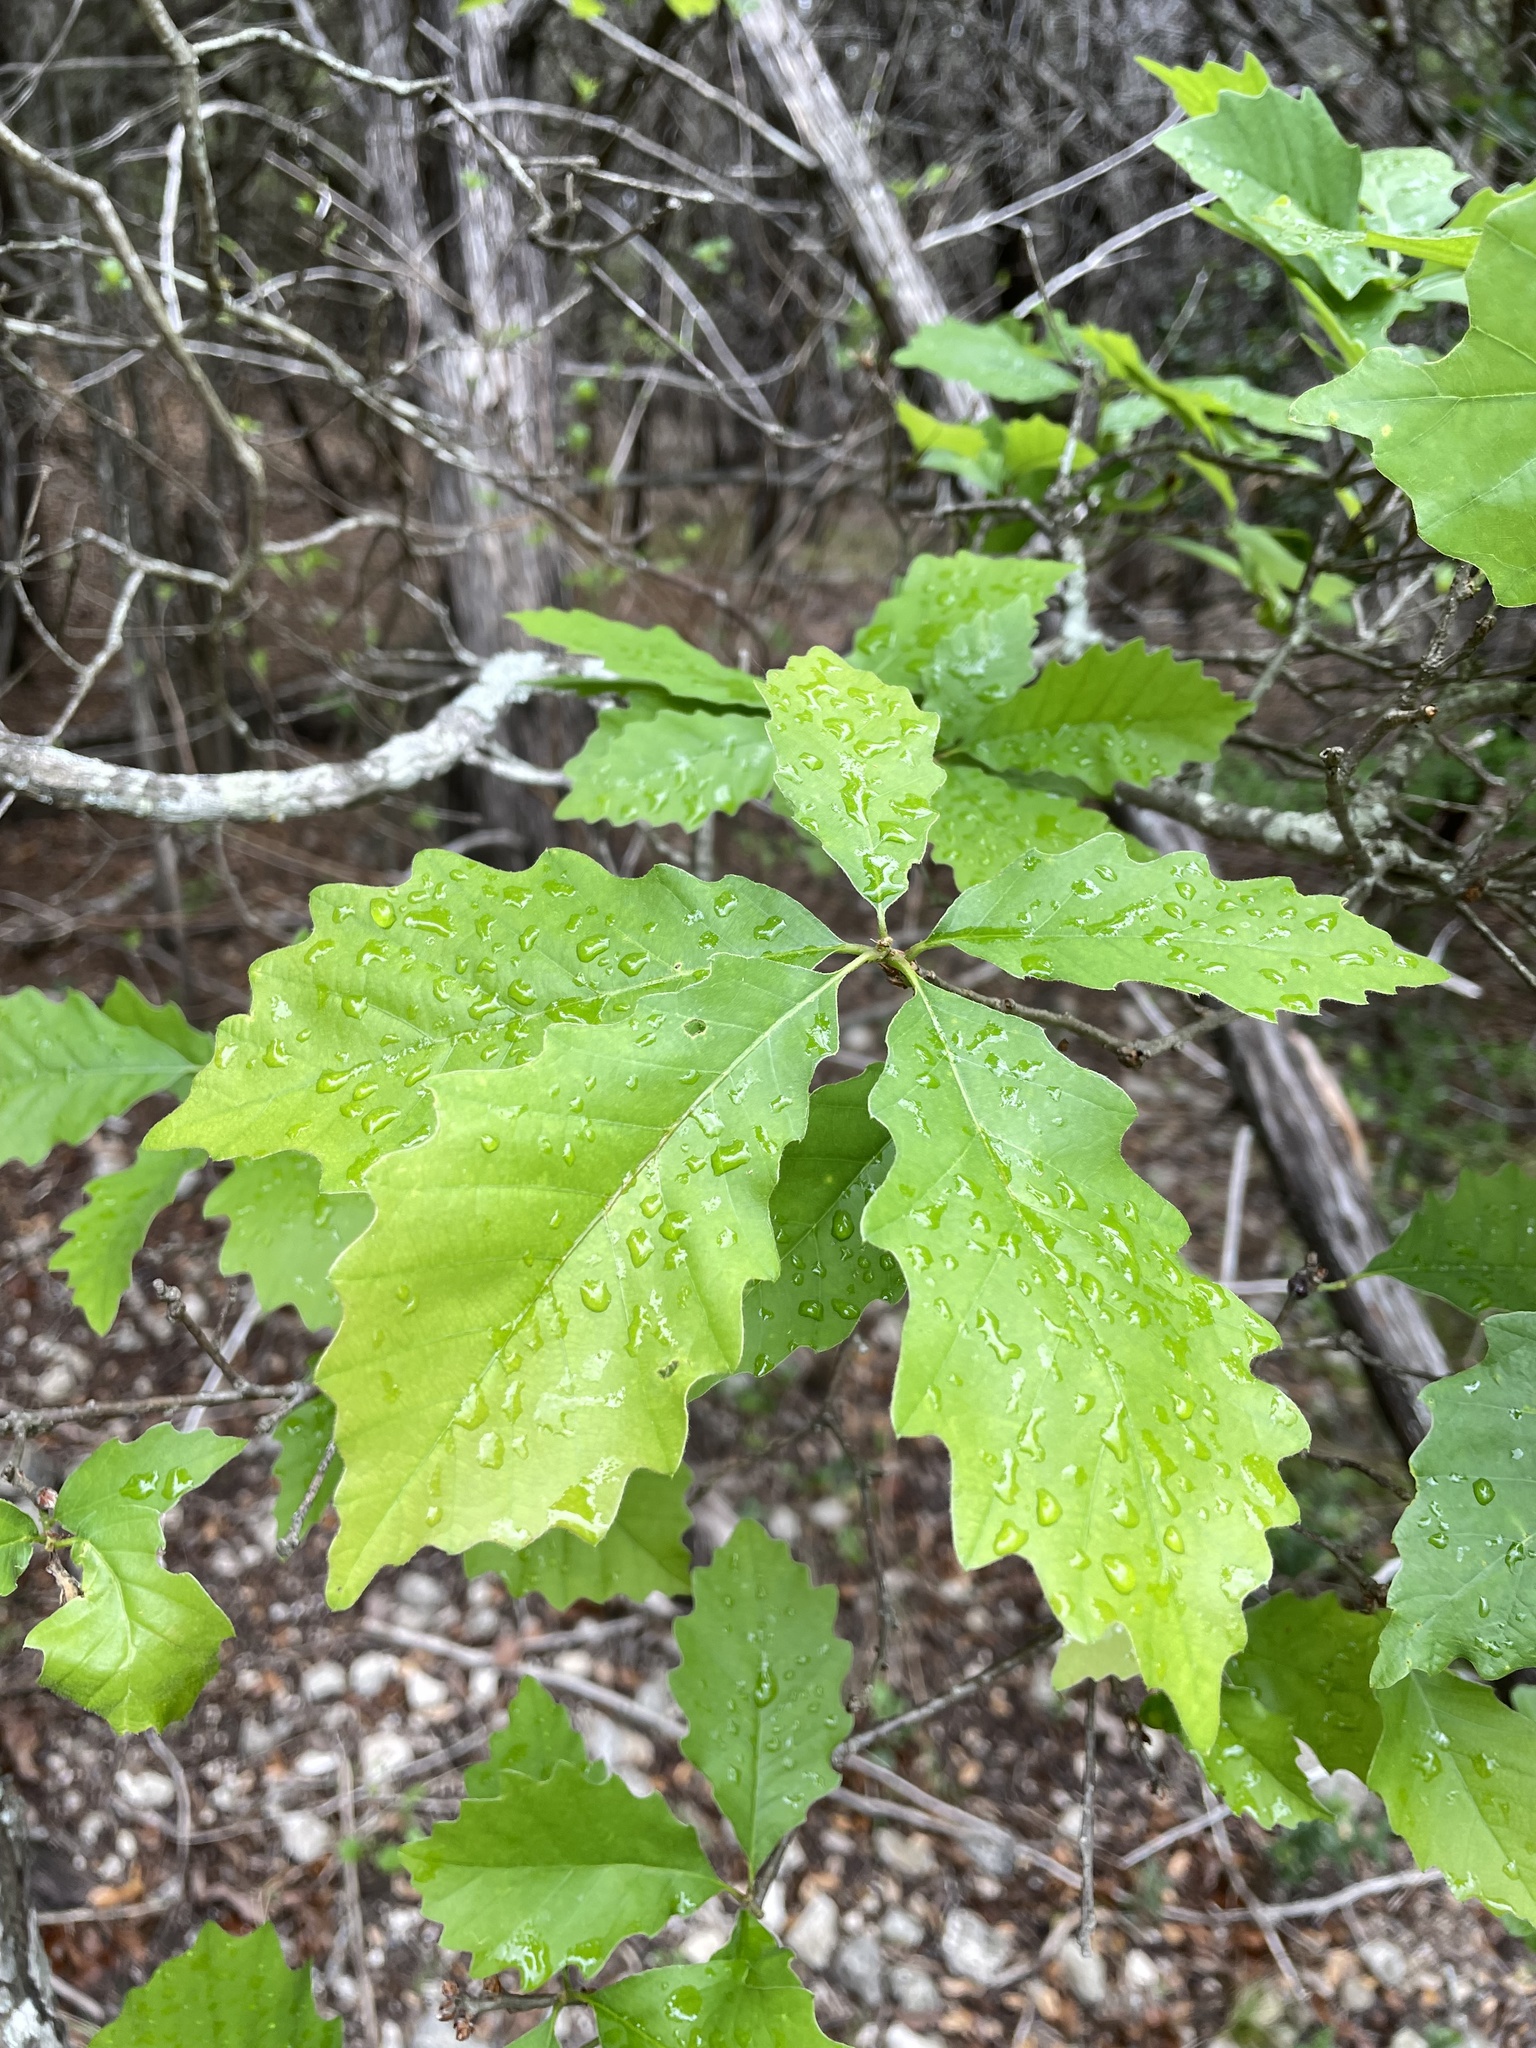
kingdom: Plantae
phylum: Tracheophyta
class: Magnoliopsida
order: Fagales
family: Fagaceae
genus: Quercus
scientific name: Quercus muehlenbergii
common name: Chinkapin oak
